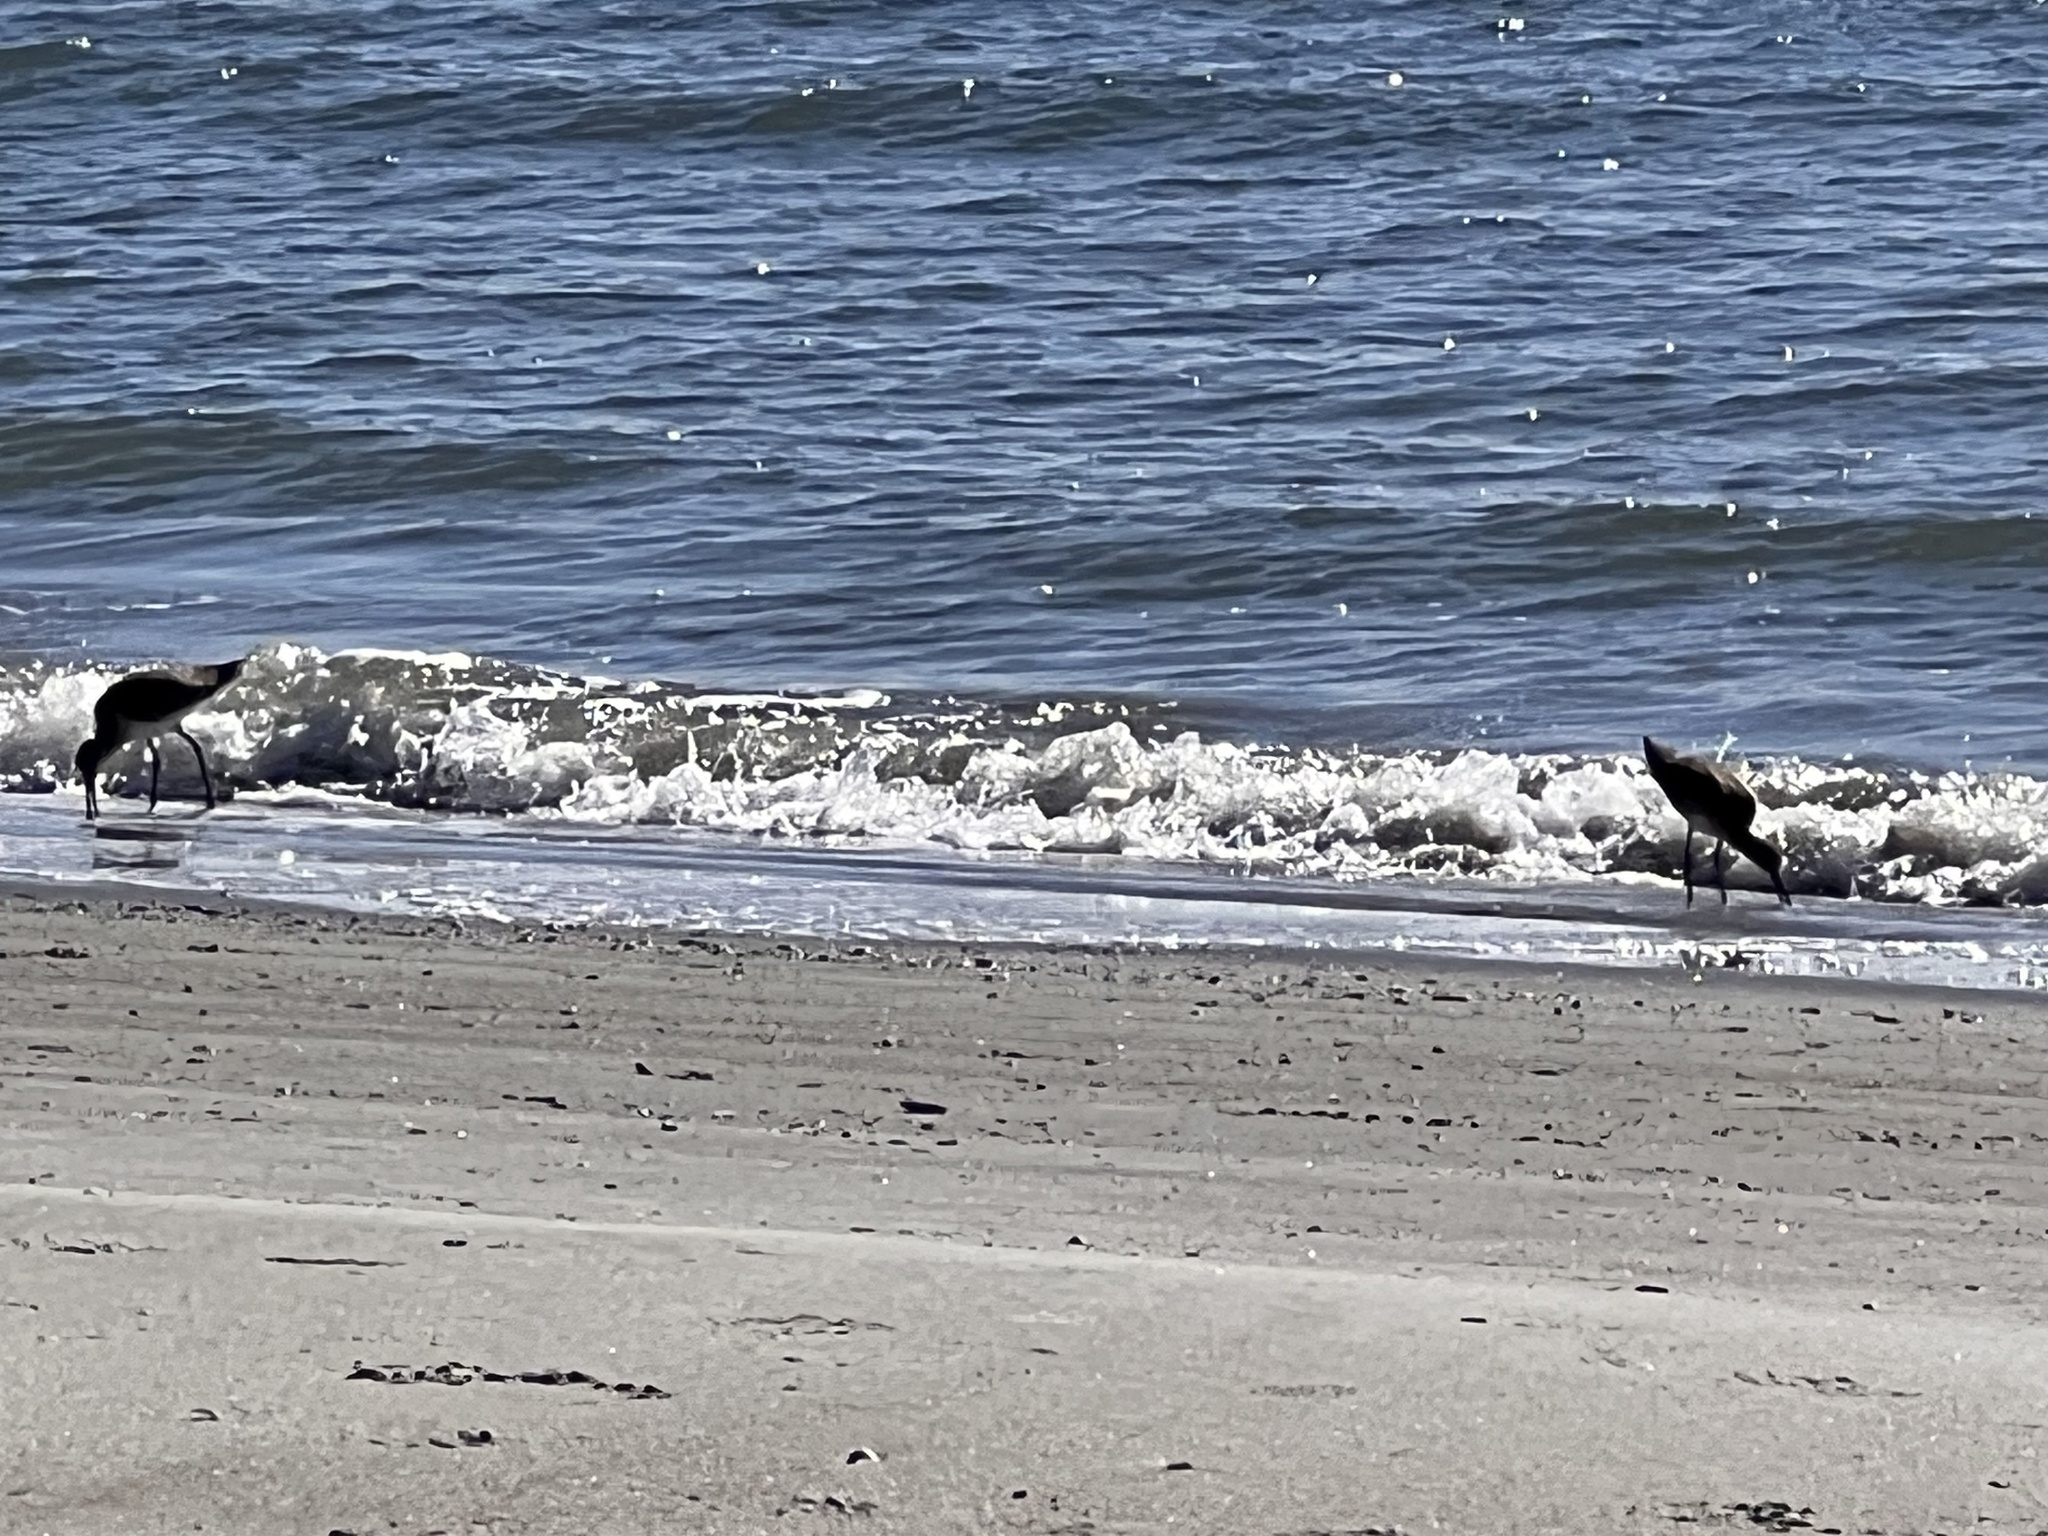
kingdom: Animalia
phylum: Chordata
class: Aves
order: Charadriiformes
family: Scolopacidae
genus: Tringa
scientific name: Tringa semipalmata
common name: Willet
